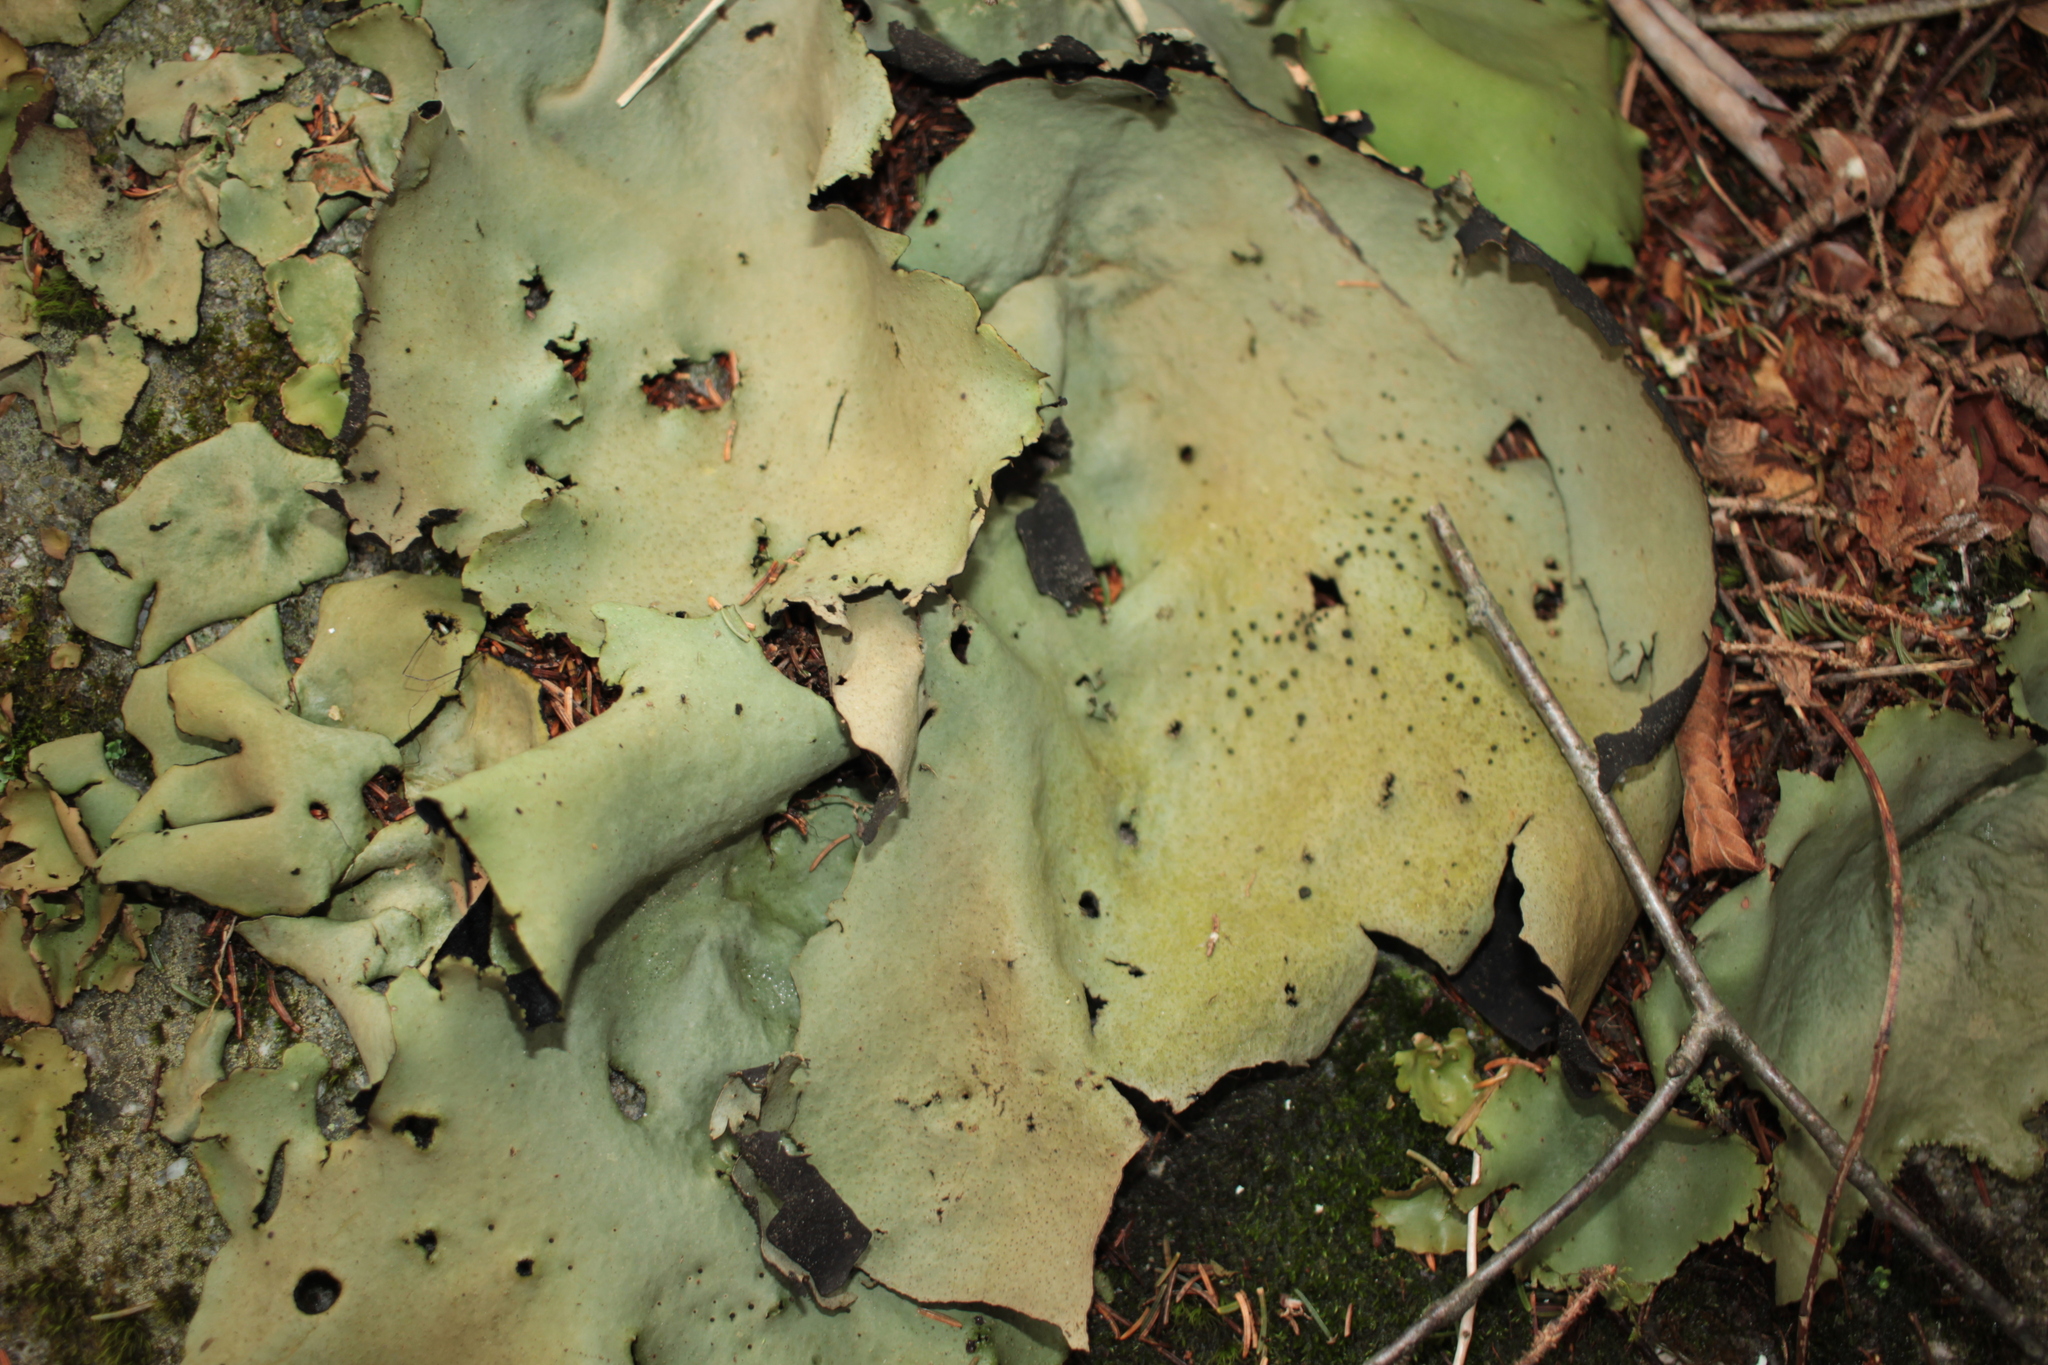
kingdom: Fungi
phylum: Ascomycota
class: Lecanoromycetes
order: Umbilicariales
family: Umbilicariaceae
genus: Umbilicaria
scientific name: Umbilicaria mammulata
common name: Smooth rock tripe
